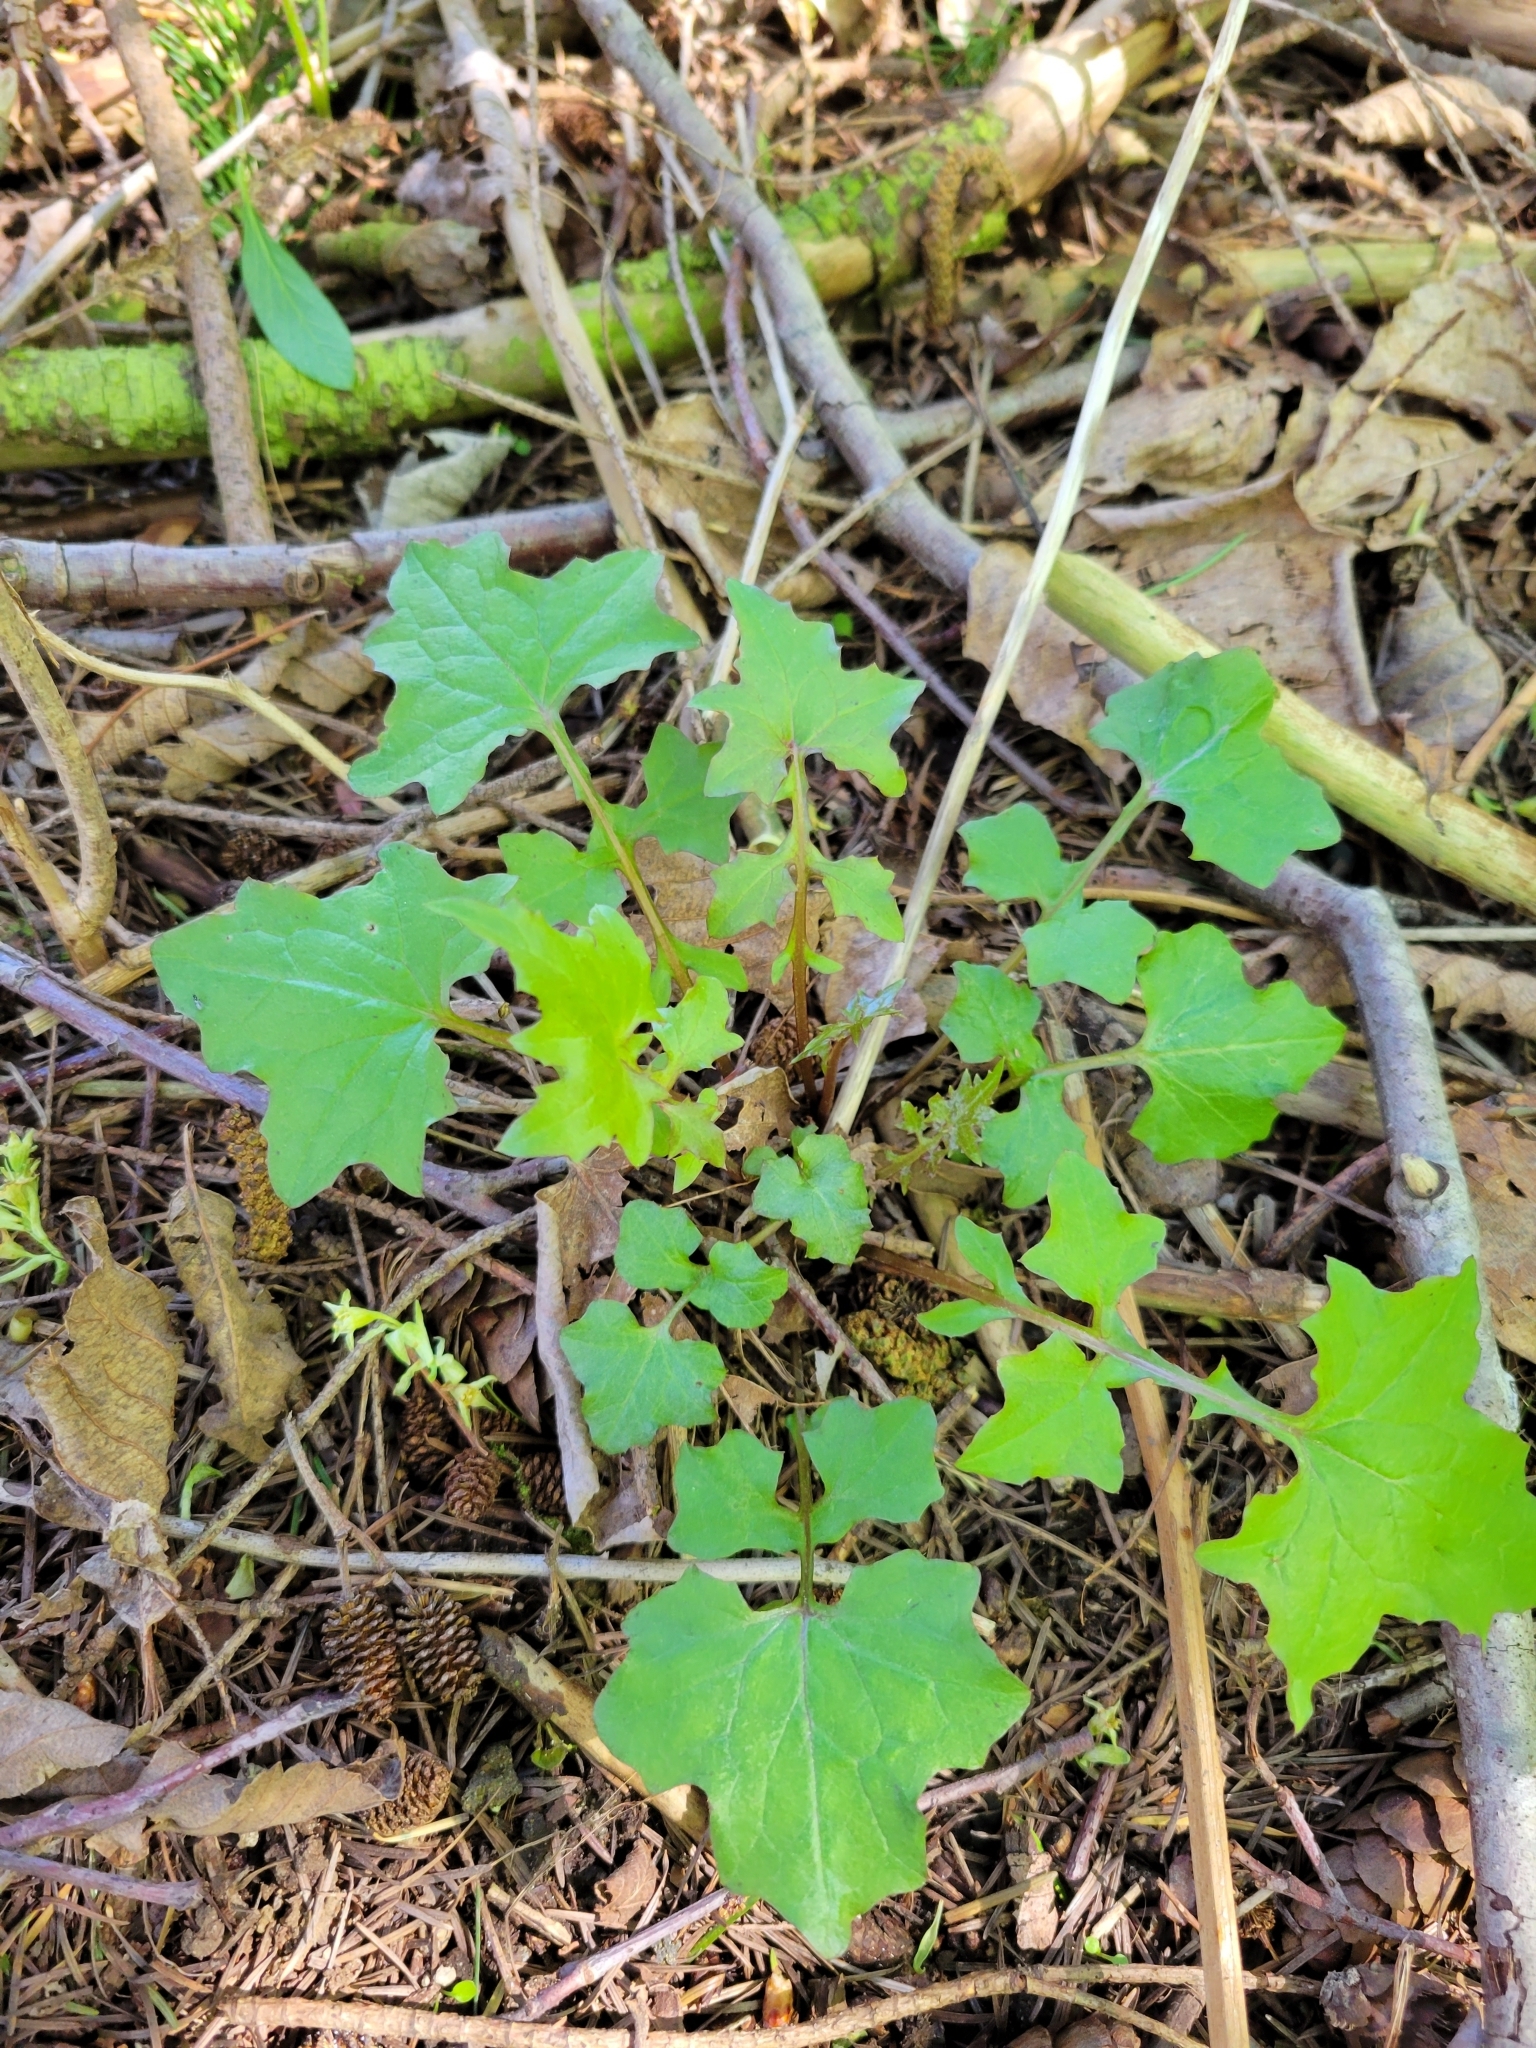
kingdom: Plantae
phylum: Tracheophyta
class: Magnoliopsida
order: Asterales
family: Asteraceae
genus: Mycelis
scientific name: Mycelis muralis
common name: Wall lettuce
